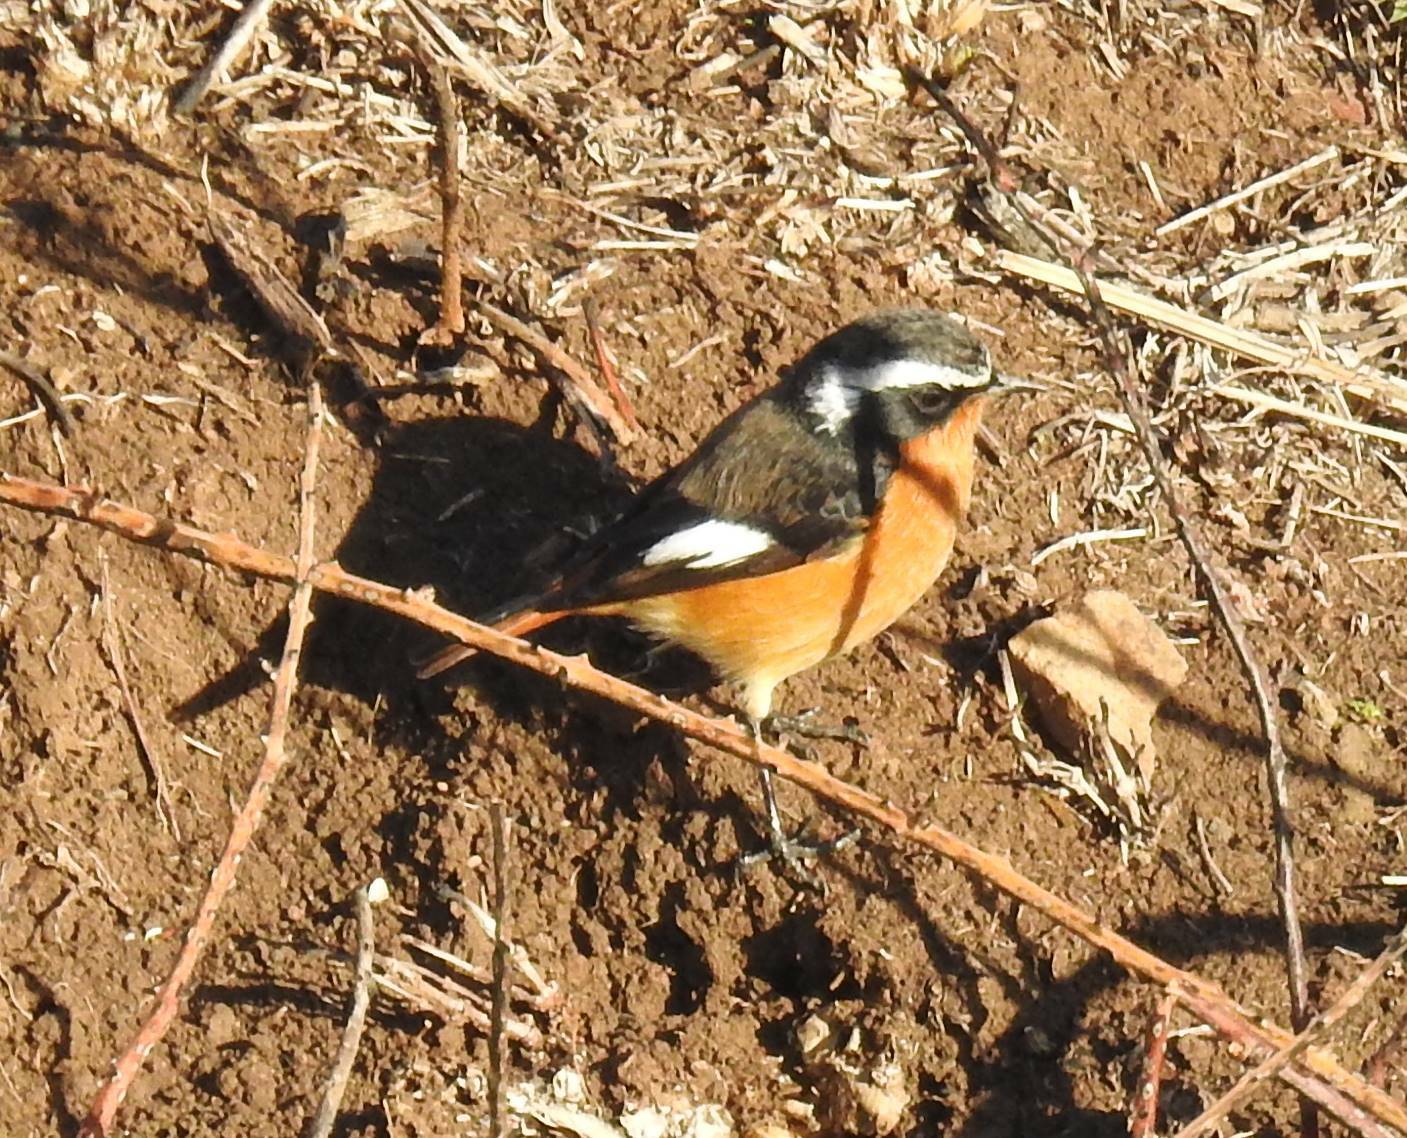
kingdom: Animalia
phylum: Chordata
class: Aves
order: Passeriformes
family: Muscicapidae
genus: Phoenicurus
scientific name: Phoenicurus moussieri
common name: Moussier's redstart
